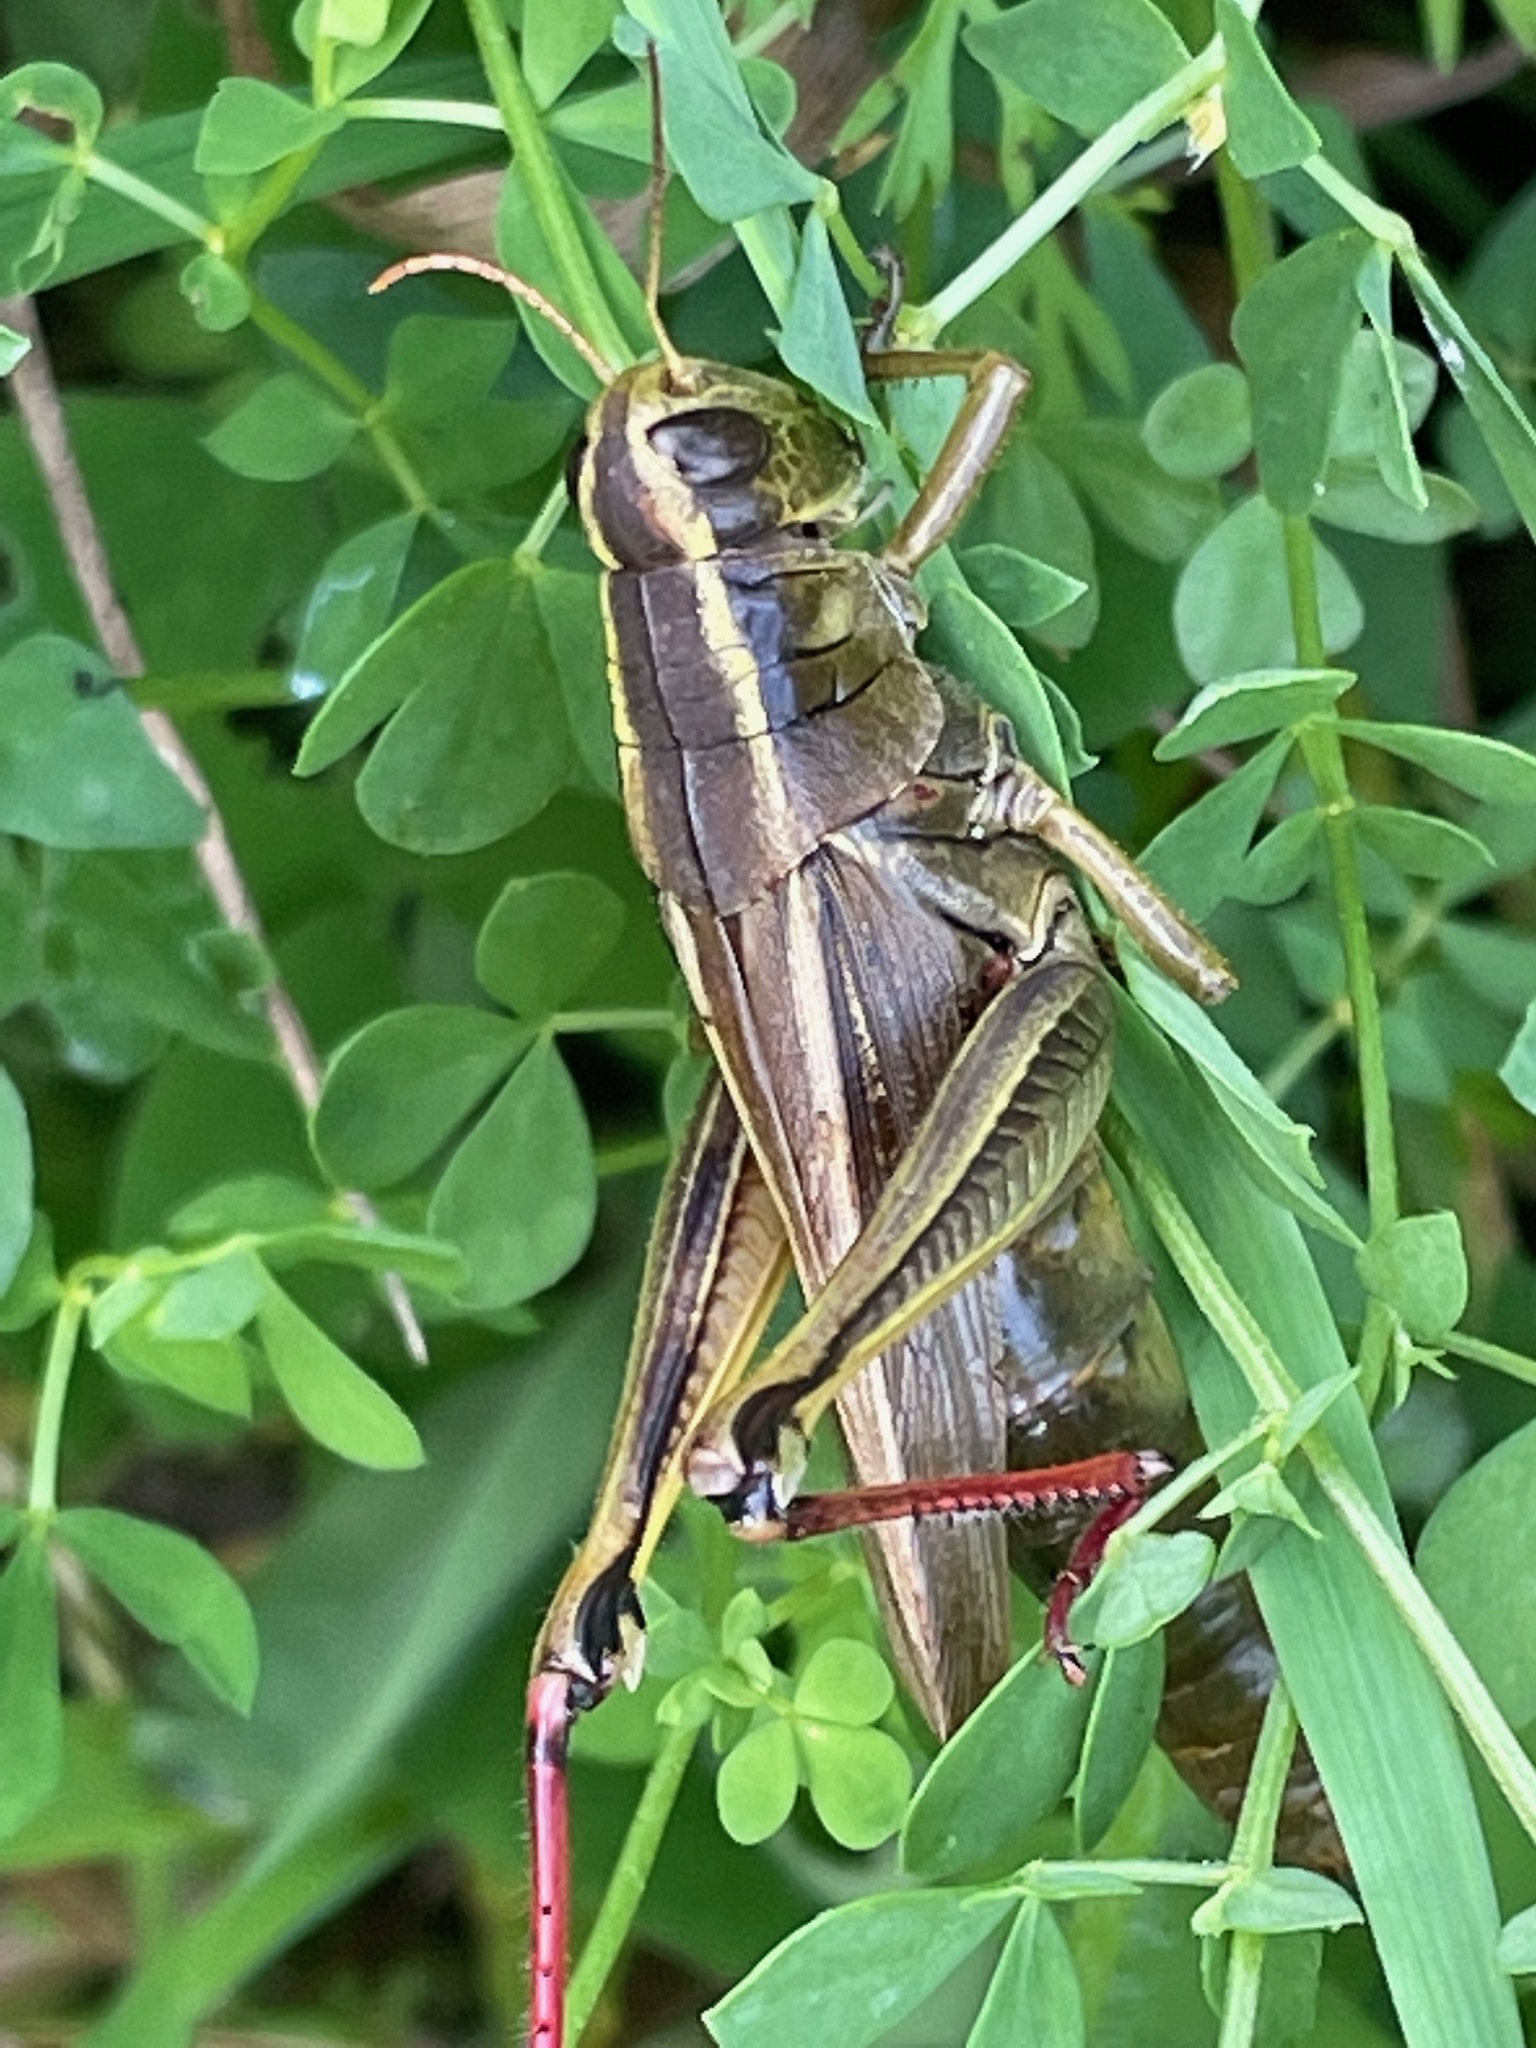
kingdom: Animalia
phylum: Arthropoda
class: Insecta
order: Orthoptera
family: Acrididae
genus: Melanoplus
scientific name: Melanoplus bivittatus
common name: Two-striped grasshopper
